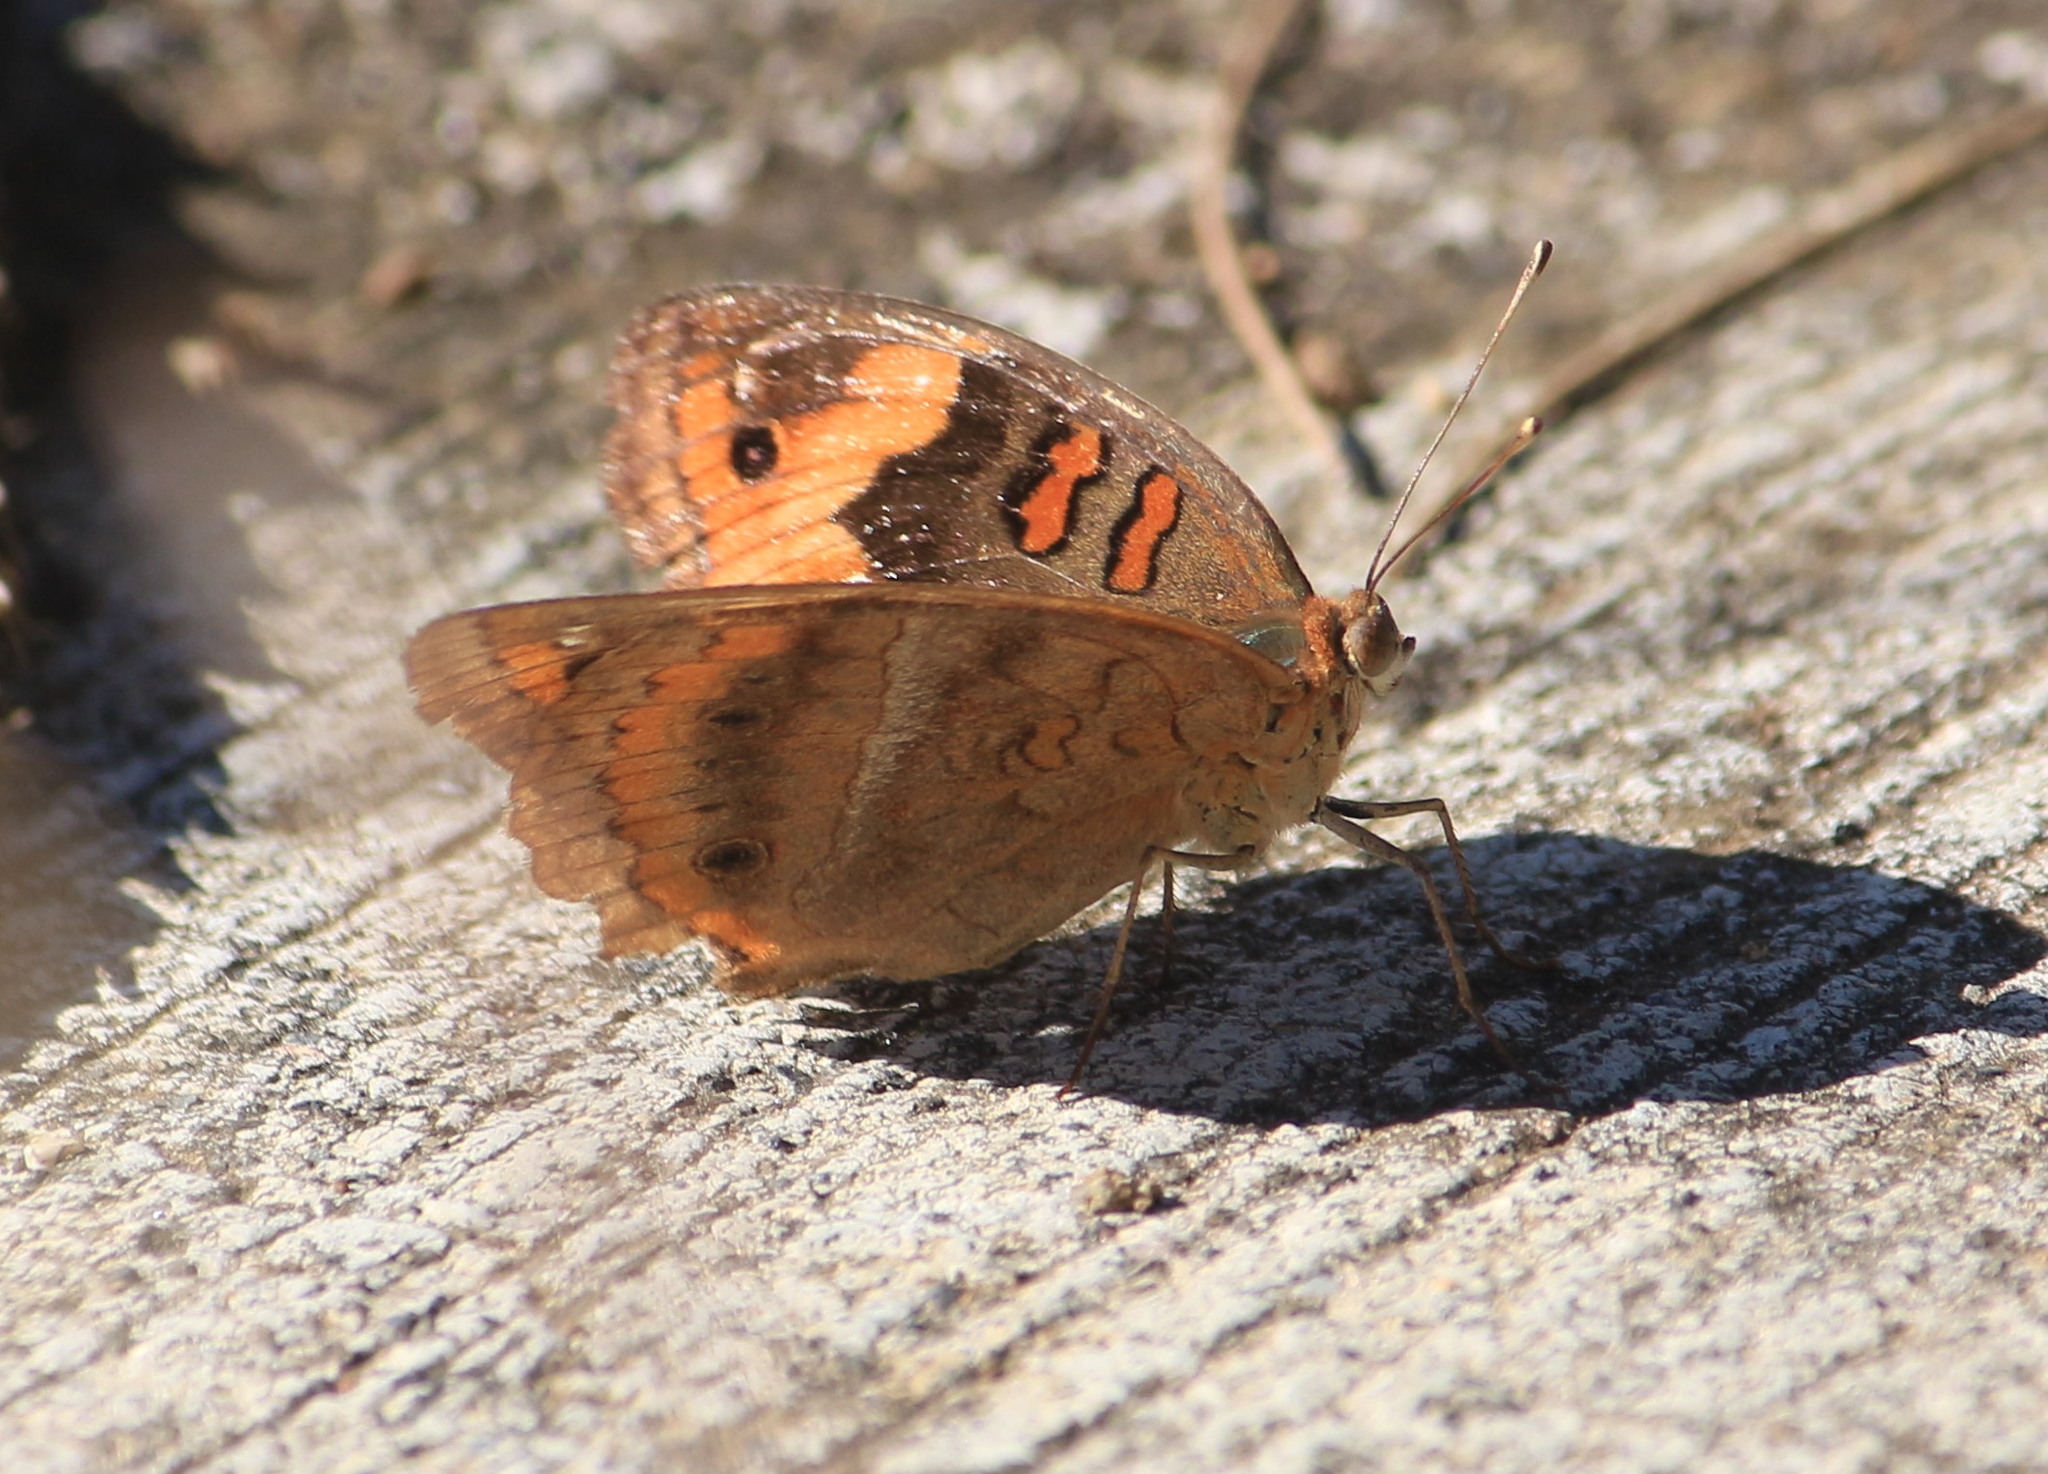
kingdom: Animalia
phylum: Arthropoda
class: Insecta
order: Lepidoptera
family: Nymphalidae
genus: Junonia
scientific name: Junonia lavinia
